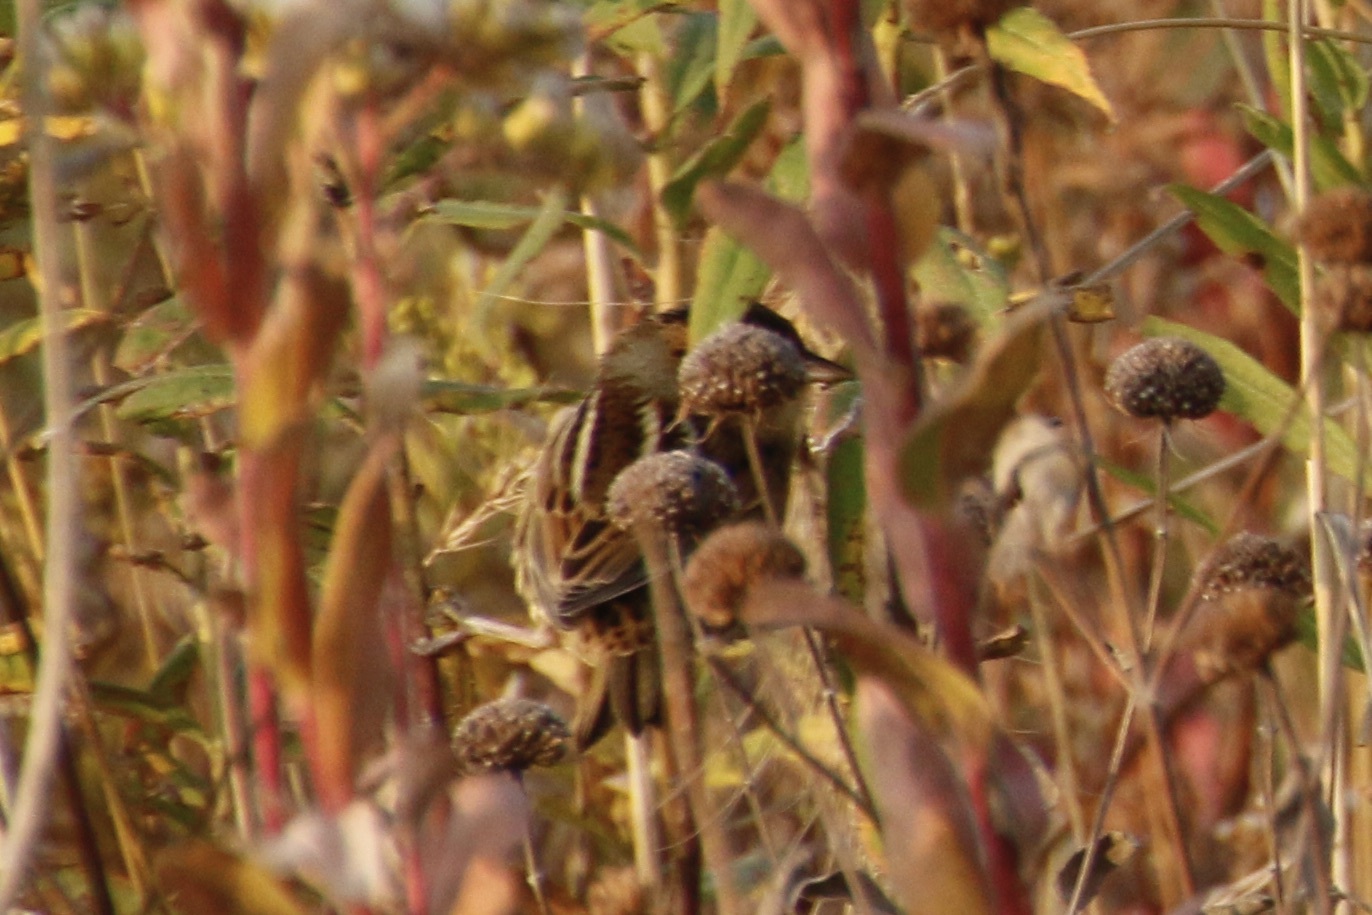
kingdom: Animalia
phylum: Chordata
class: Aves
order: Passeriformes
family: Passerellidae
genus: Ammospiza
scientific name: Ammospiza nelsoni
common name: Nelson's sparrow
